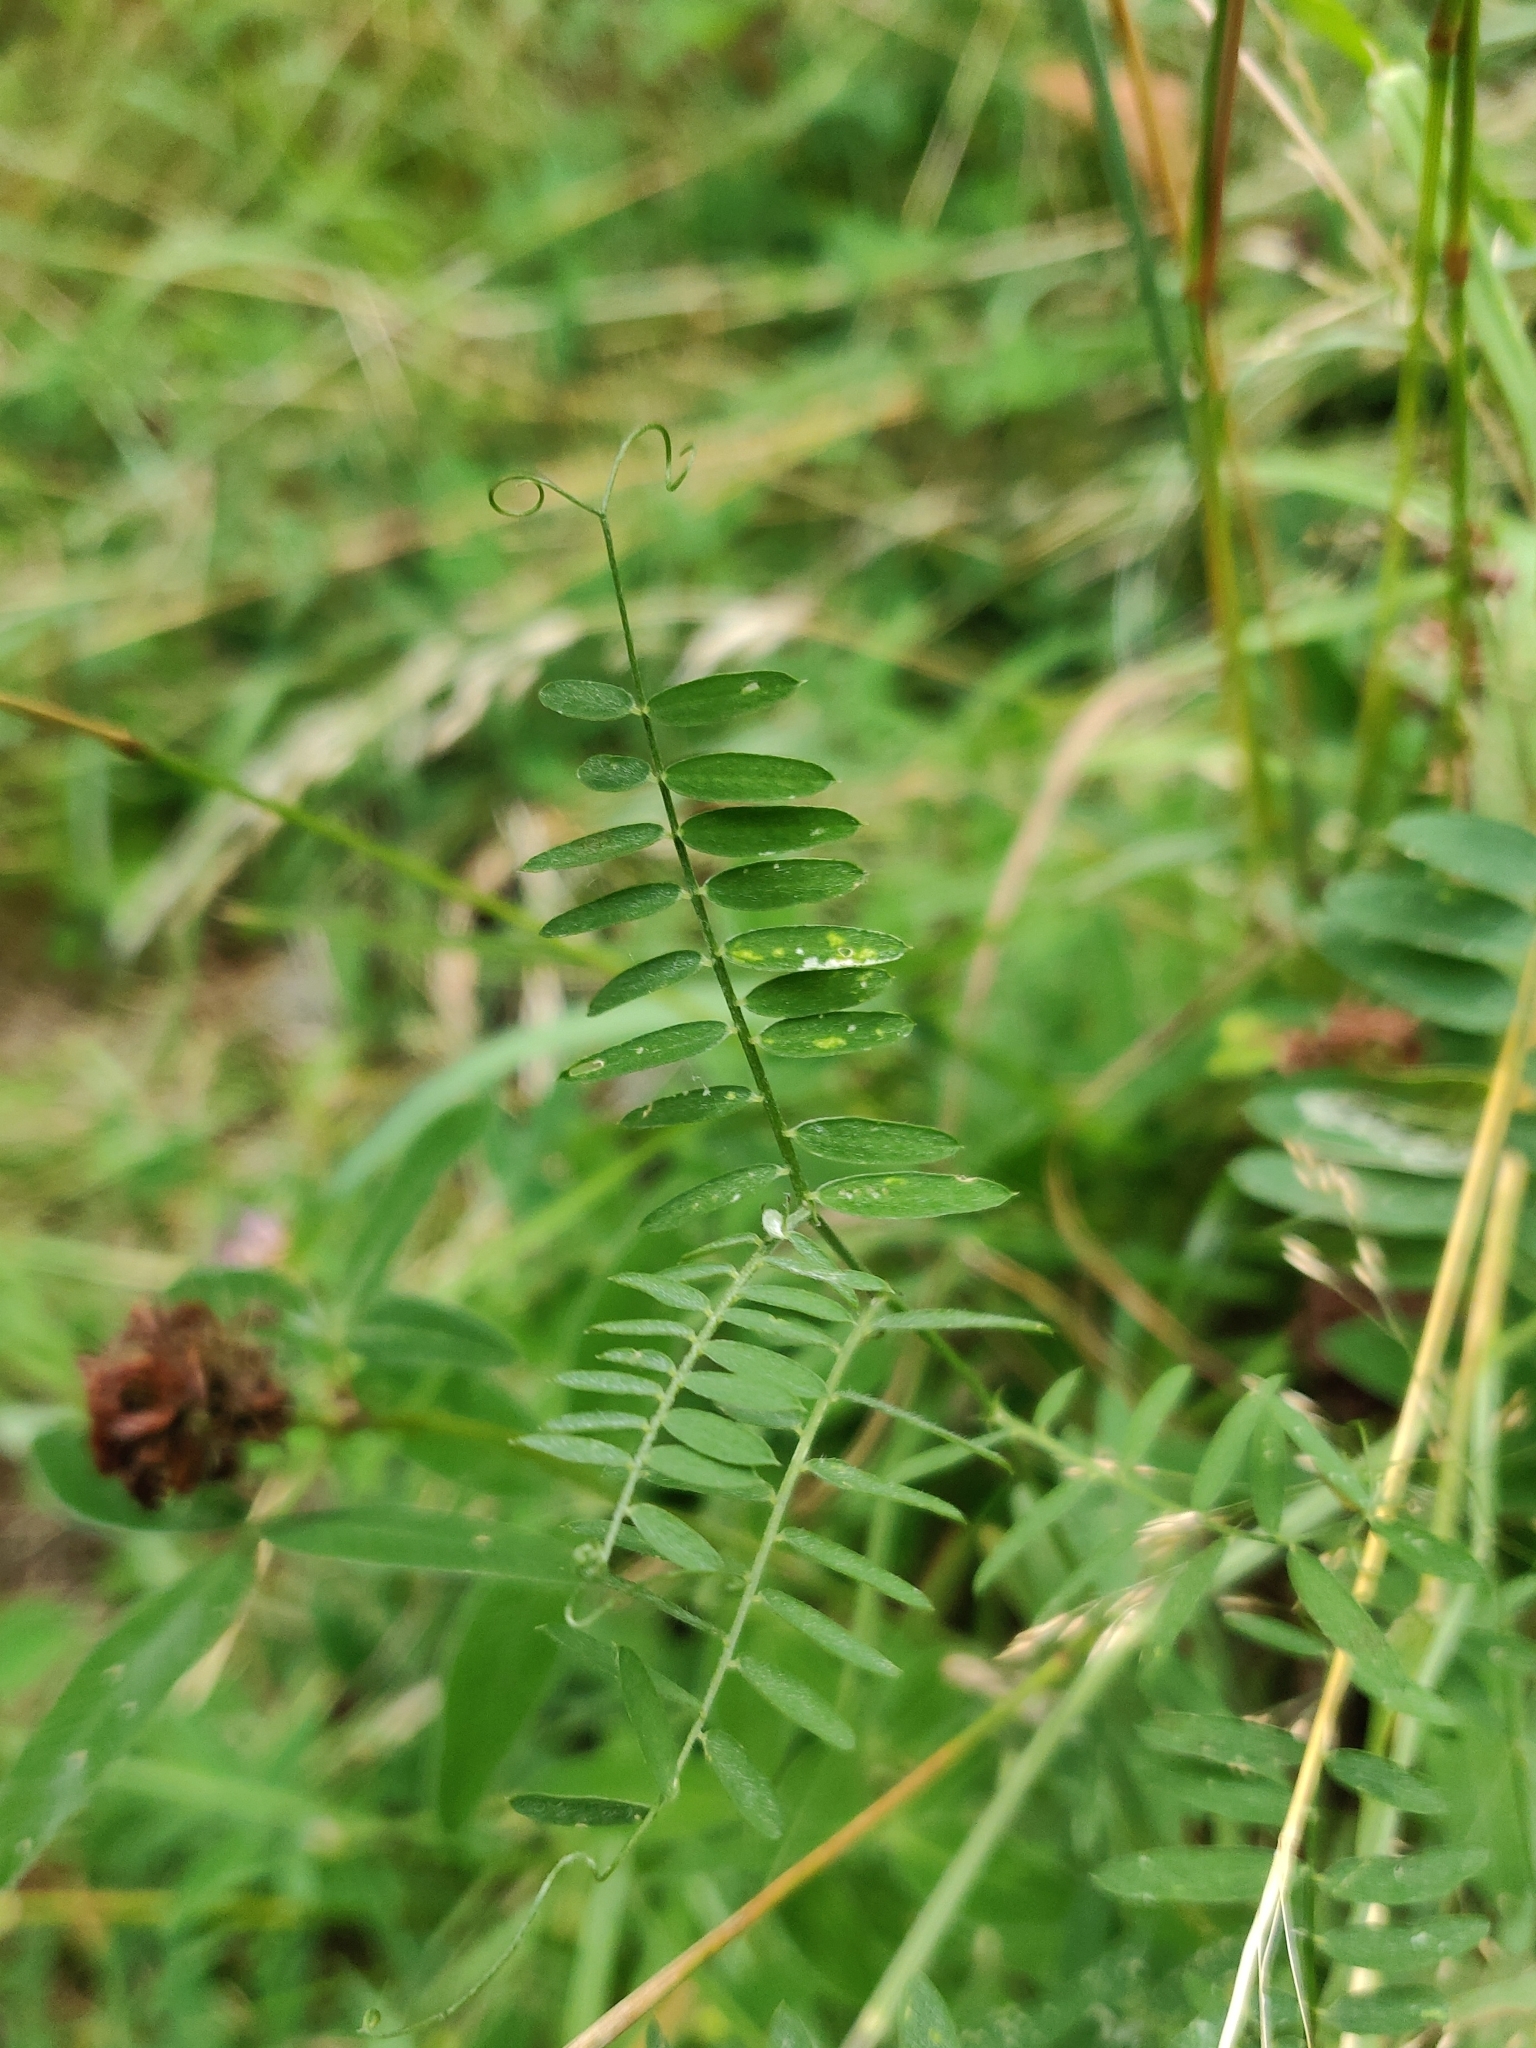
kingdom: Plantae
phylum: Tracheophyta
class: Magnoliopsida
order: Fabales
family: Fabaceae
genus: Vicia
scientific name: Vicia cracca
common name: Bird vetch
